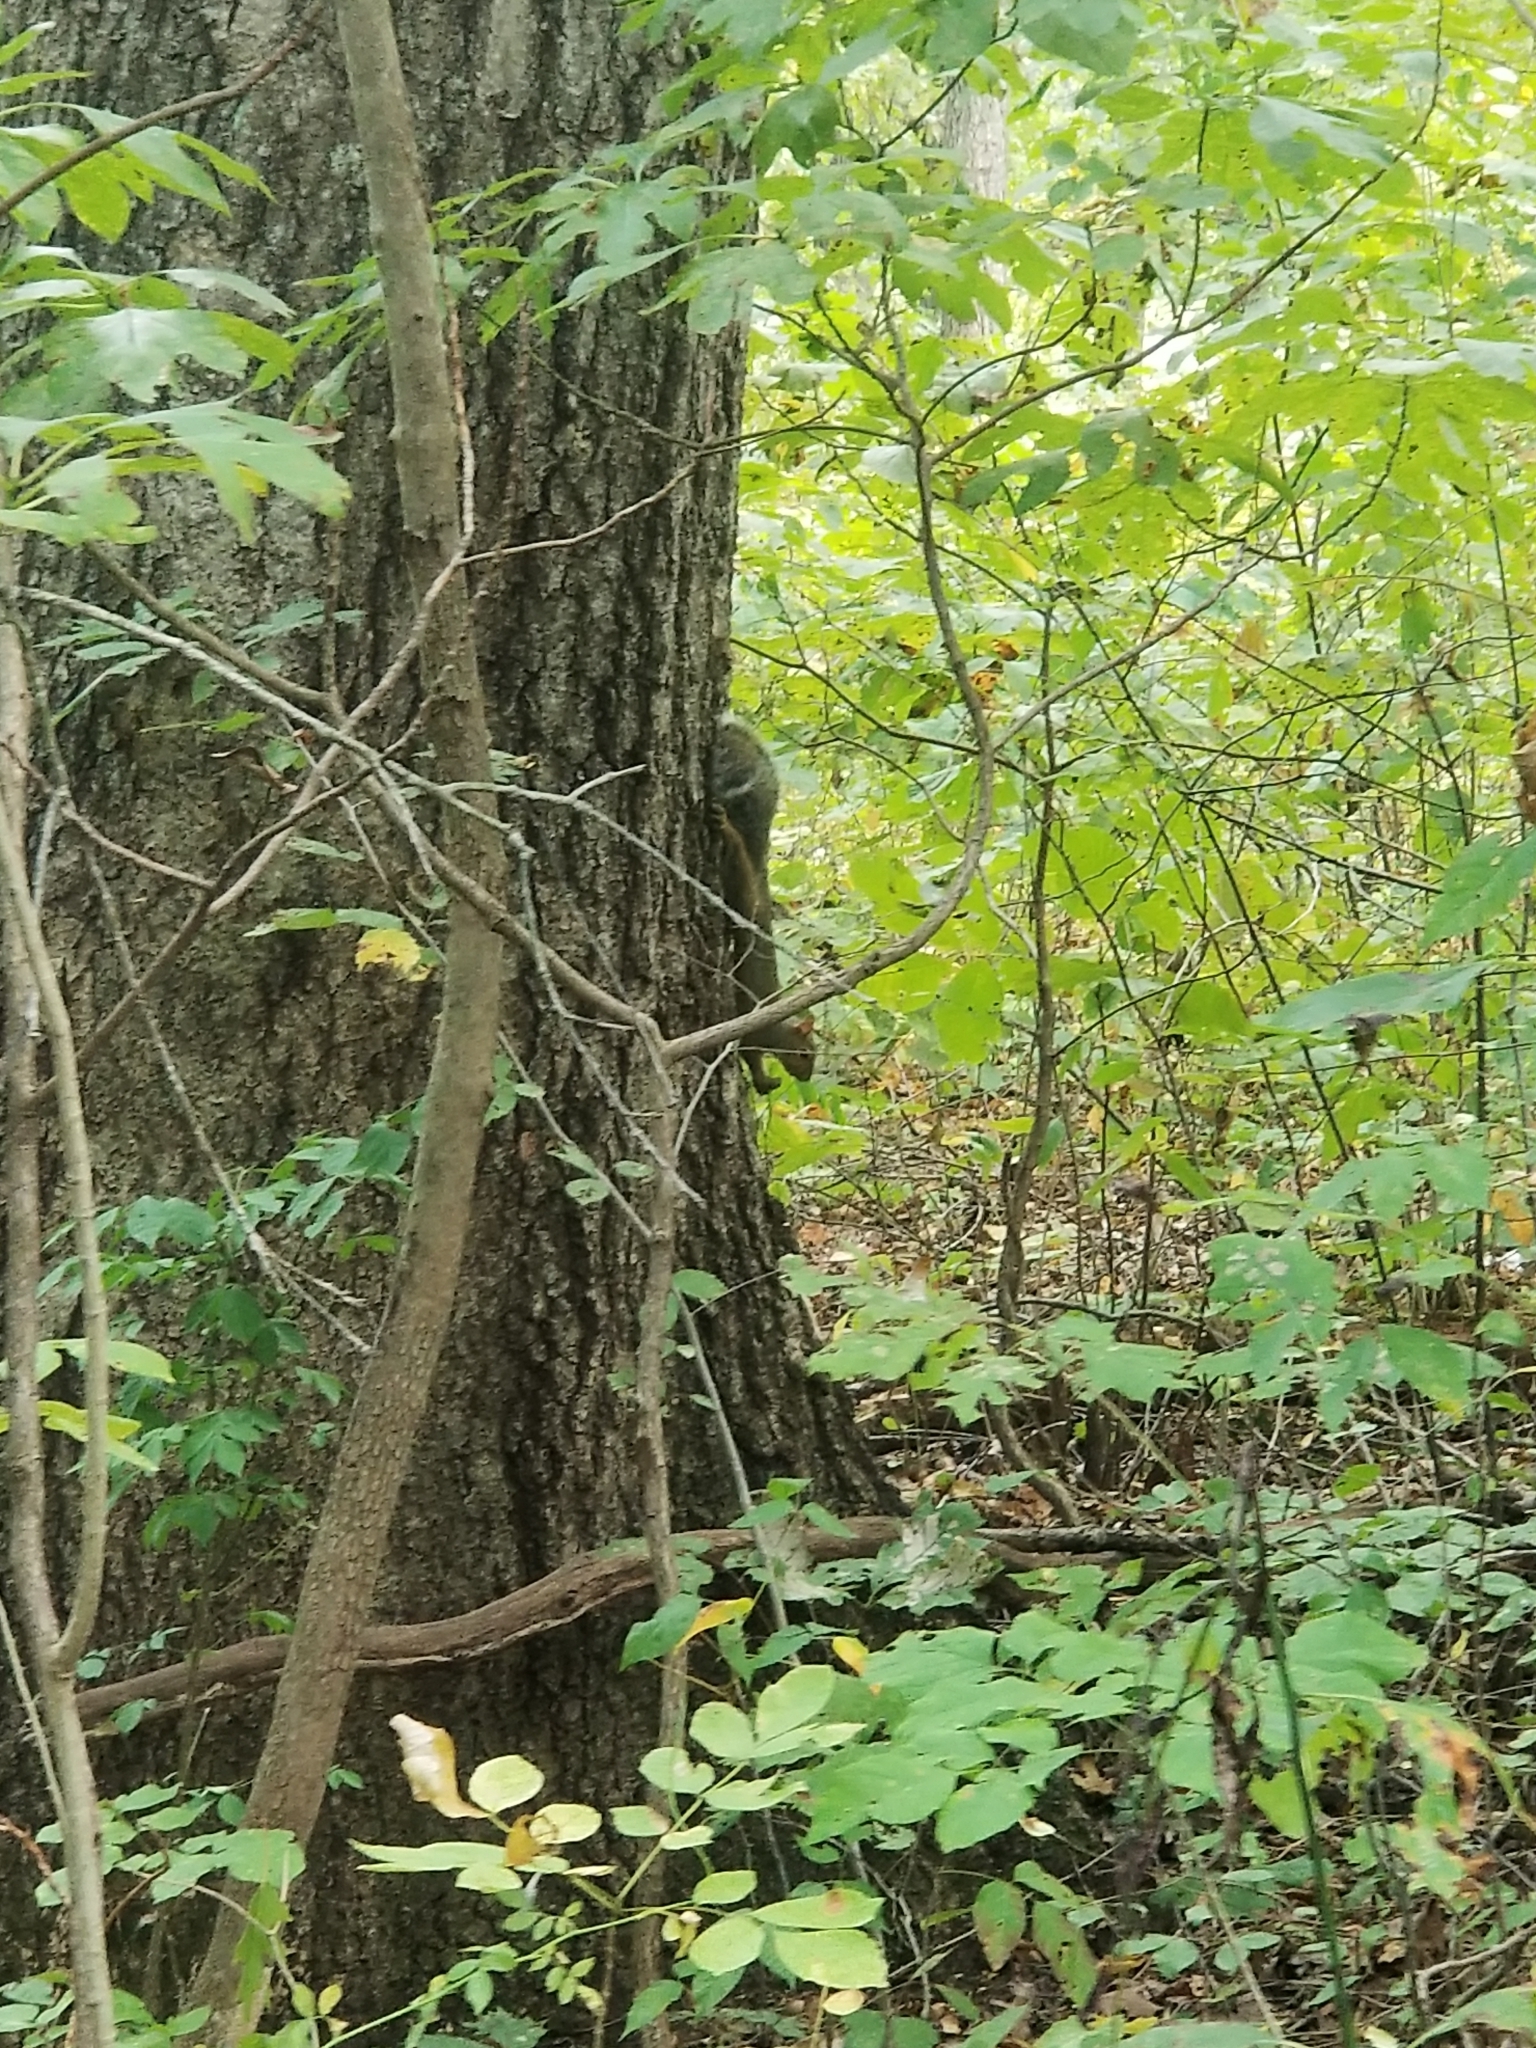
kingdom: Animalia
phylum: Chordata
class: Mammalia
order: Rodentia
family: Sciuridae
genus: Sciurus
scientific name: Sciurus carolinensis
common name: Eastern gray squirrel
